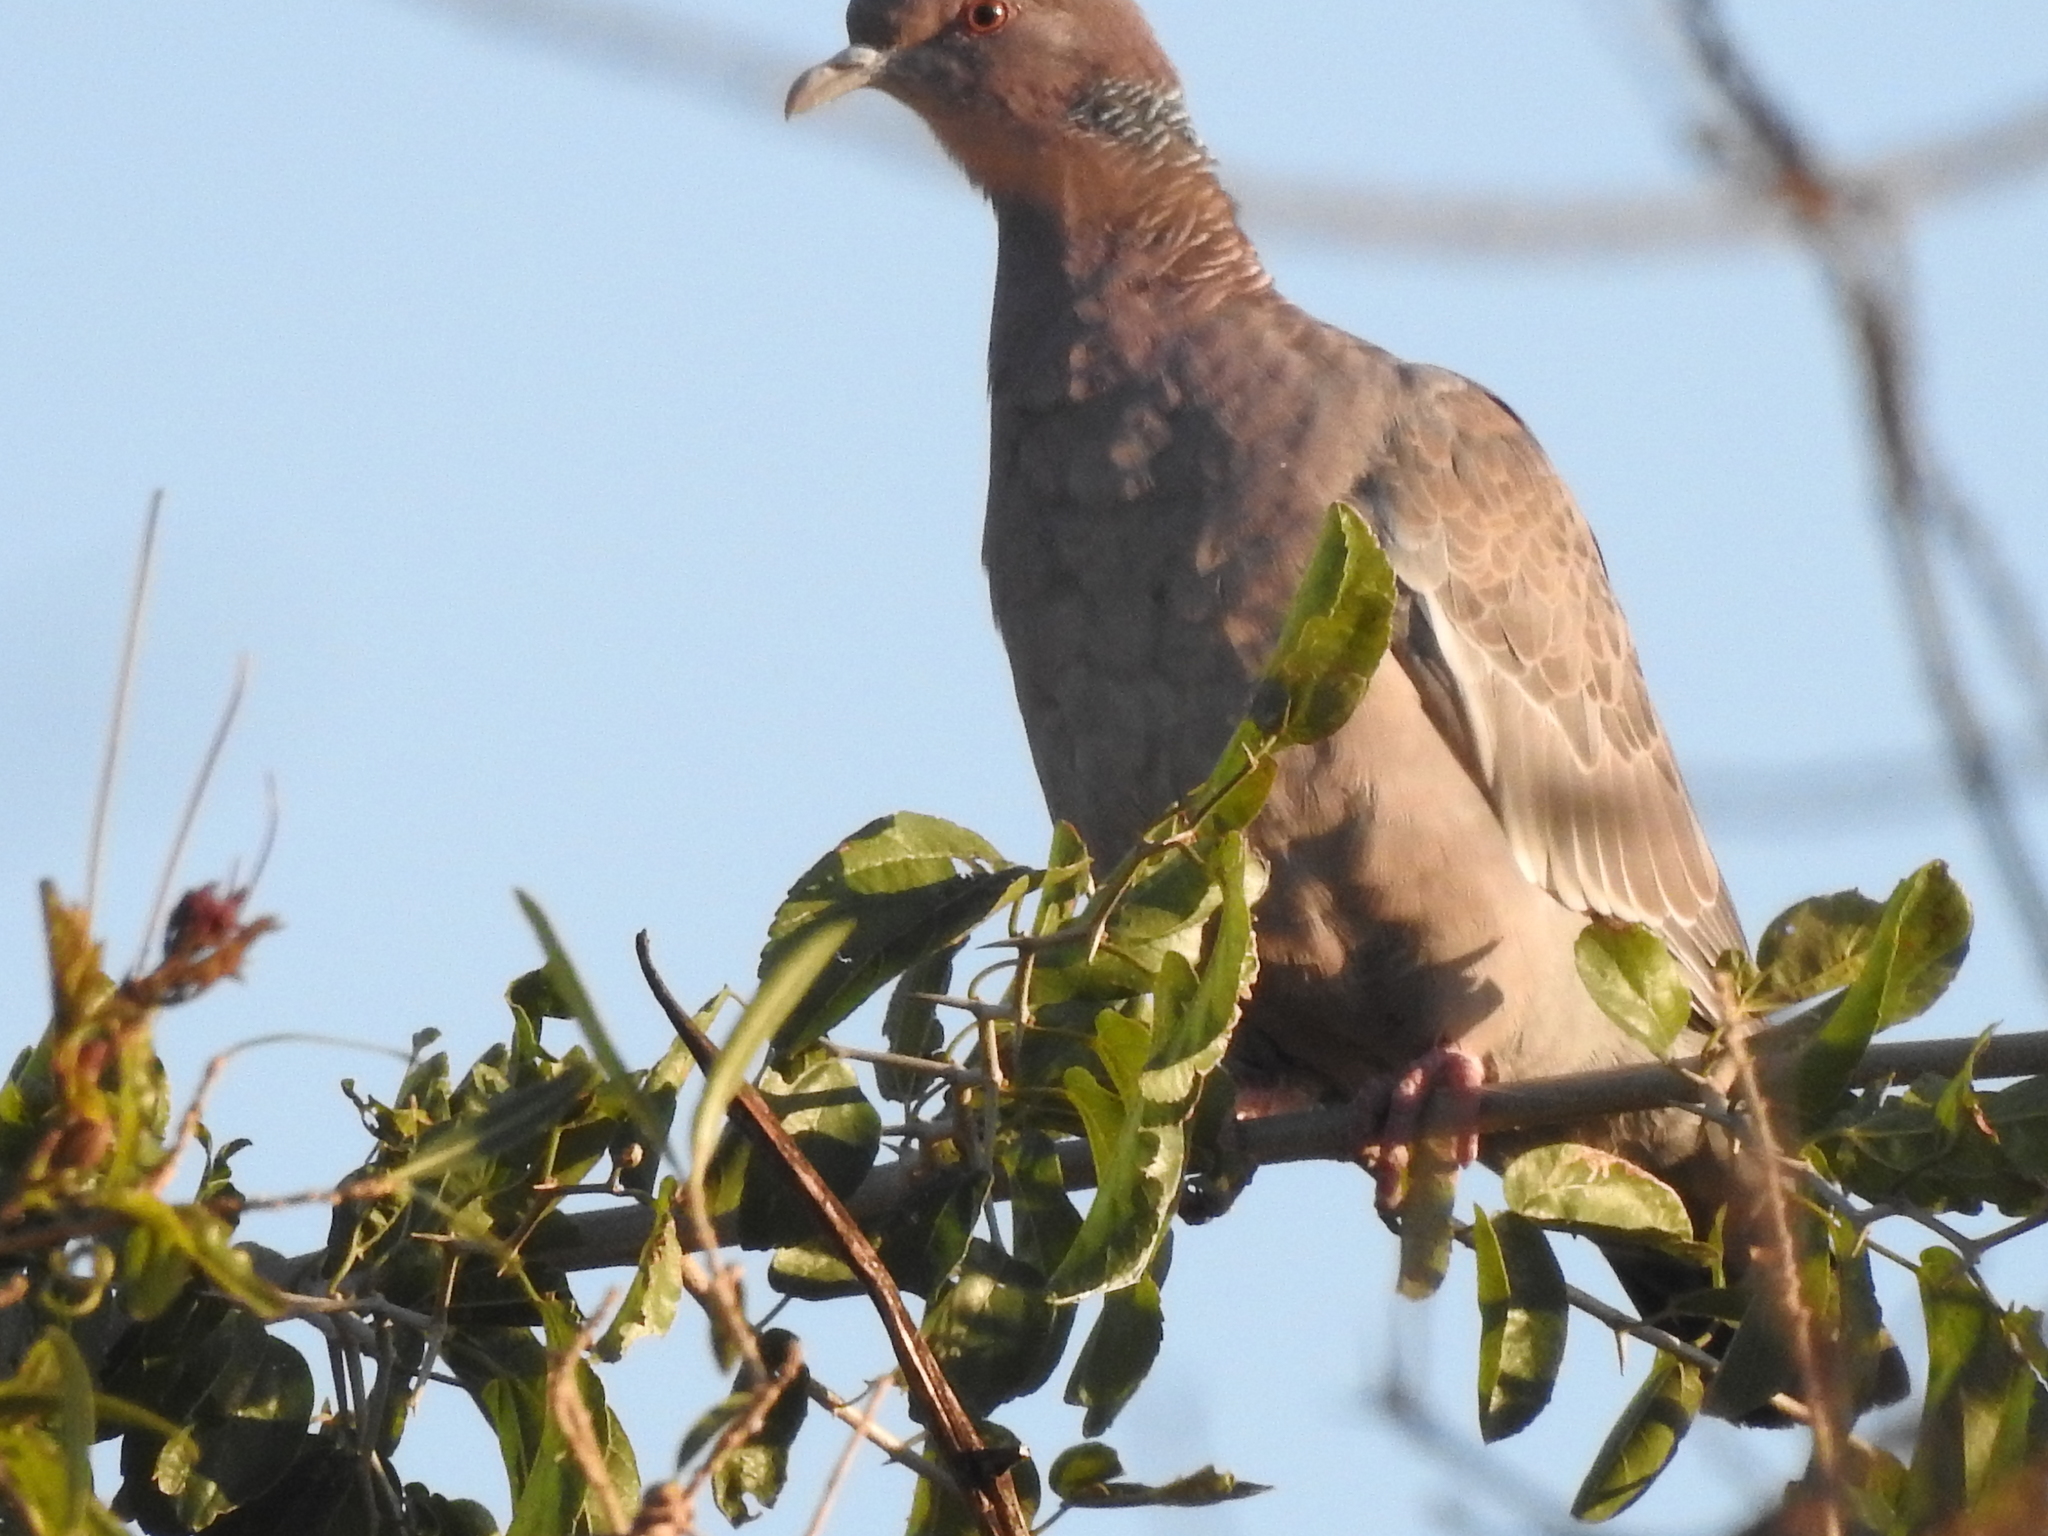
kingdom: Animalia
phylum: Chordata
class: Aves
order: Columbiformes
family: Columbidae
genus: Patagioenas
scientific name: Patagioenas picazuro
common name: Picazuro pigeon
